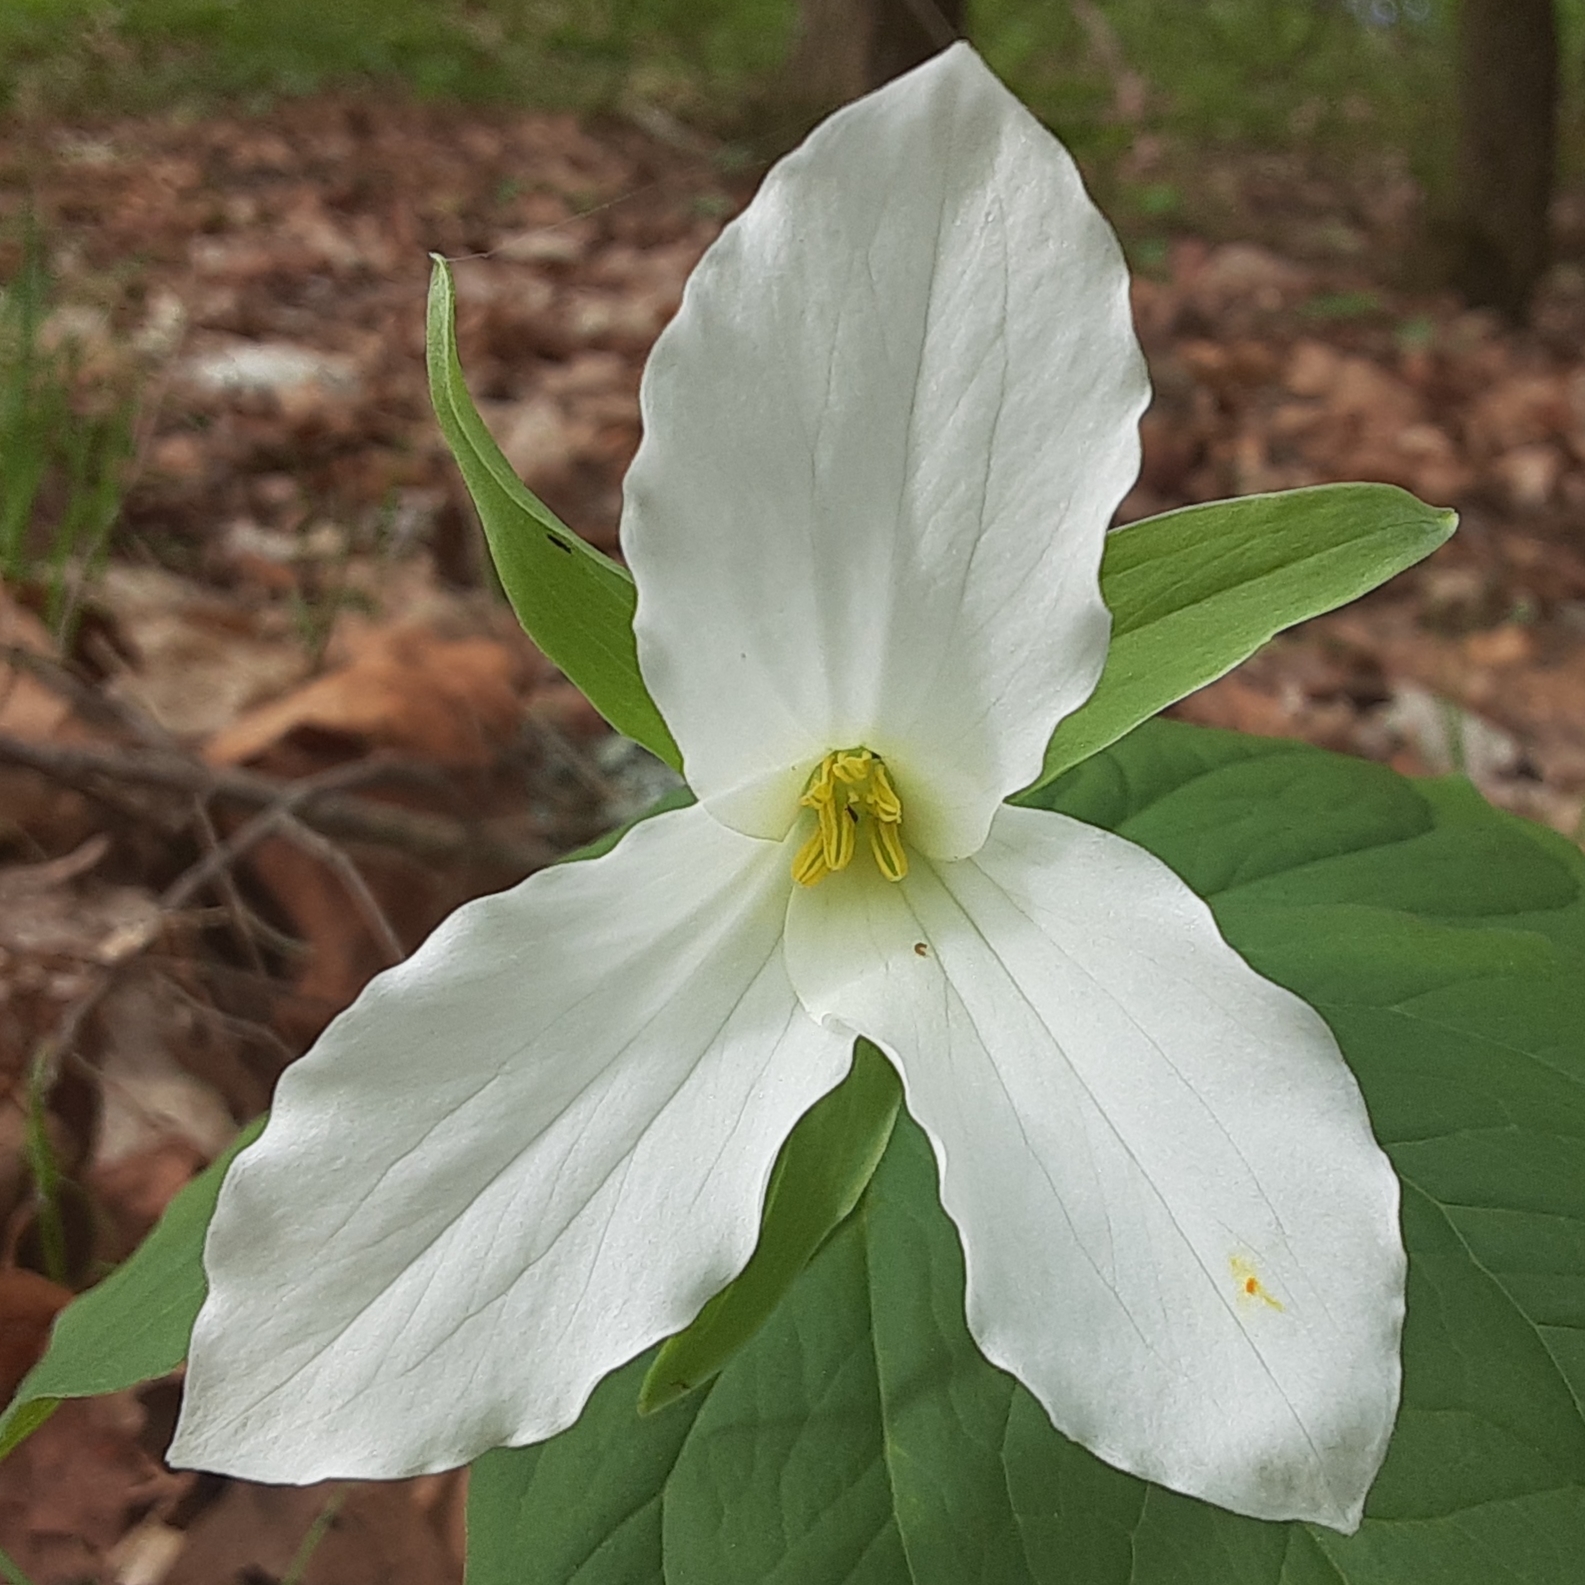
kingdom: Plantae
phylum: Tracheophyta
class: Liliopsida
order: Liliales
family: Melanthiaceae
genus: Trillium
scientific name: Trillium grandiflorum
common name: Great white trillium
